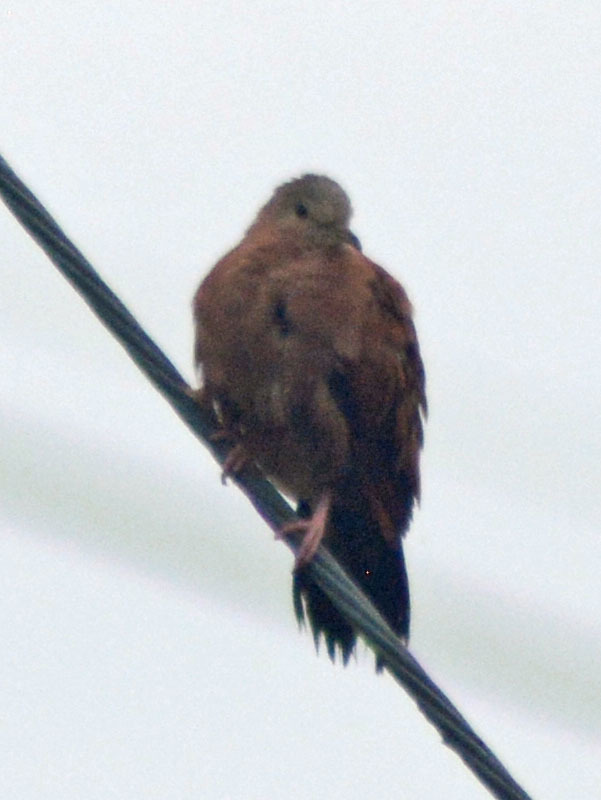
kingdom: Animalia
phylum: Chordata
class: Aves
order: Columbiformes
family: Columbidae
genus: Columbina
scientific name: Columbina talpacoti
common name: Ruddy ground dove
